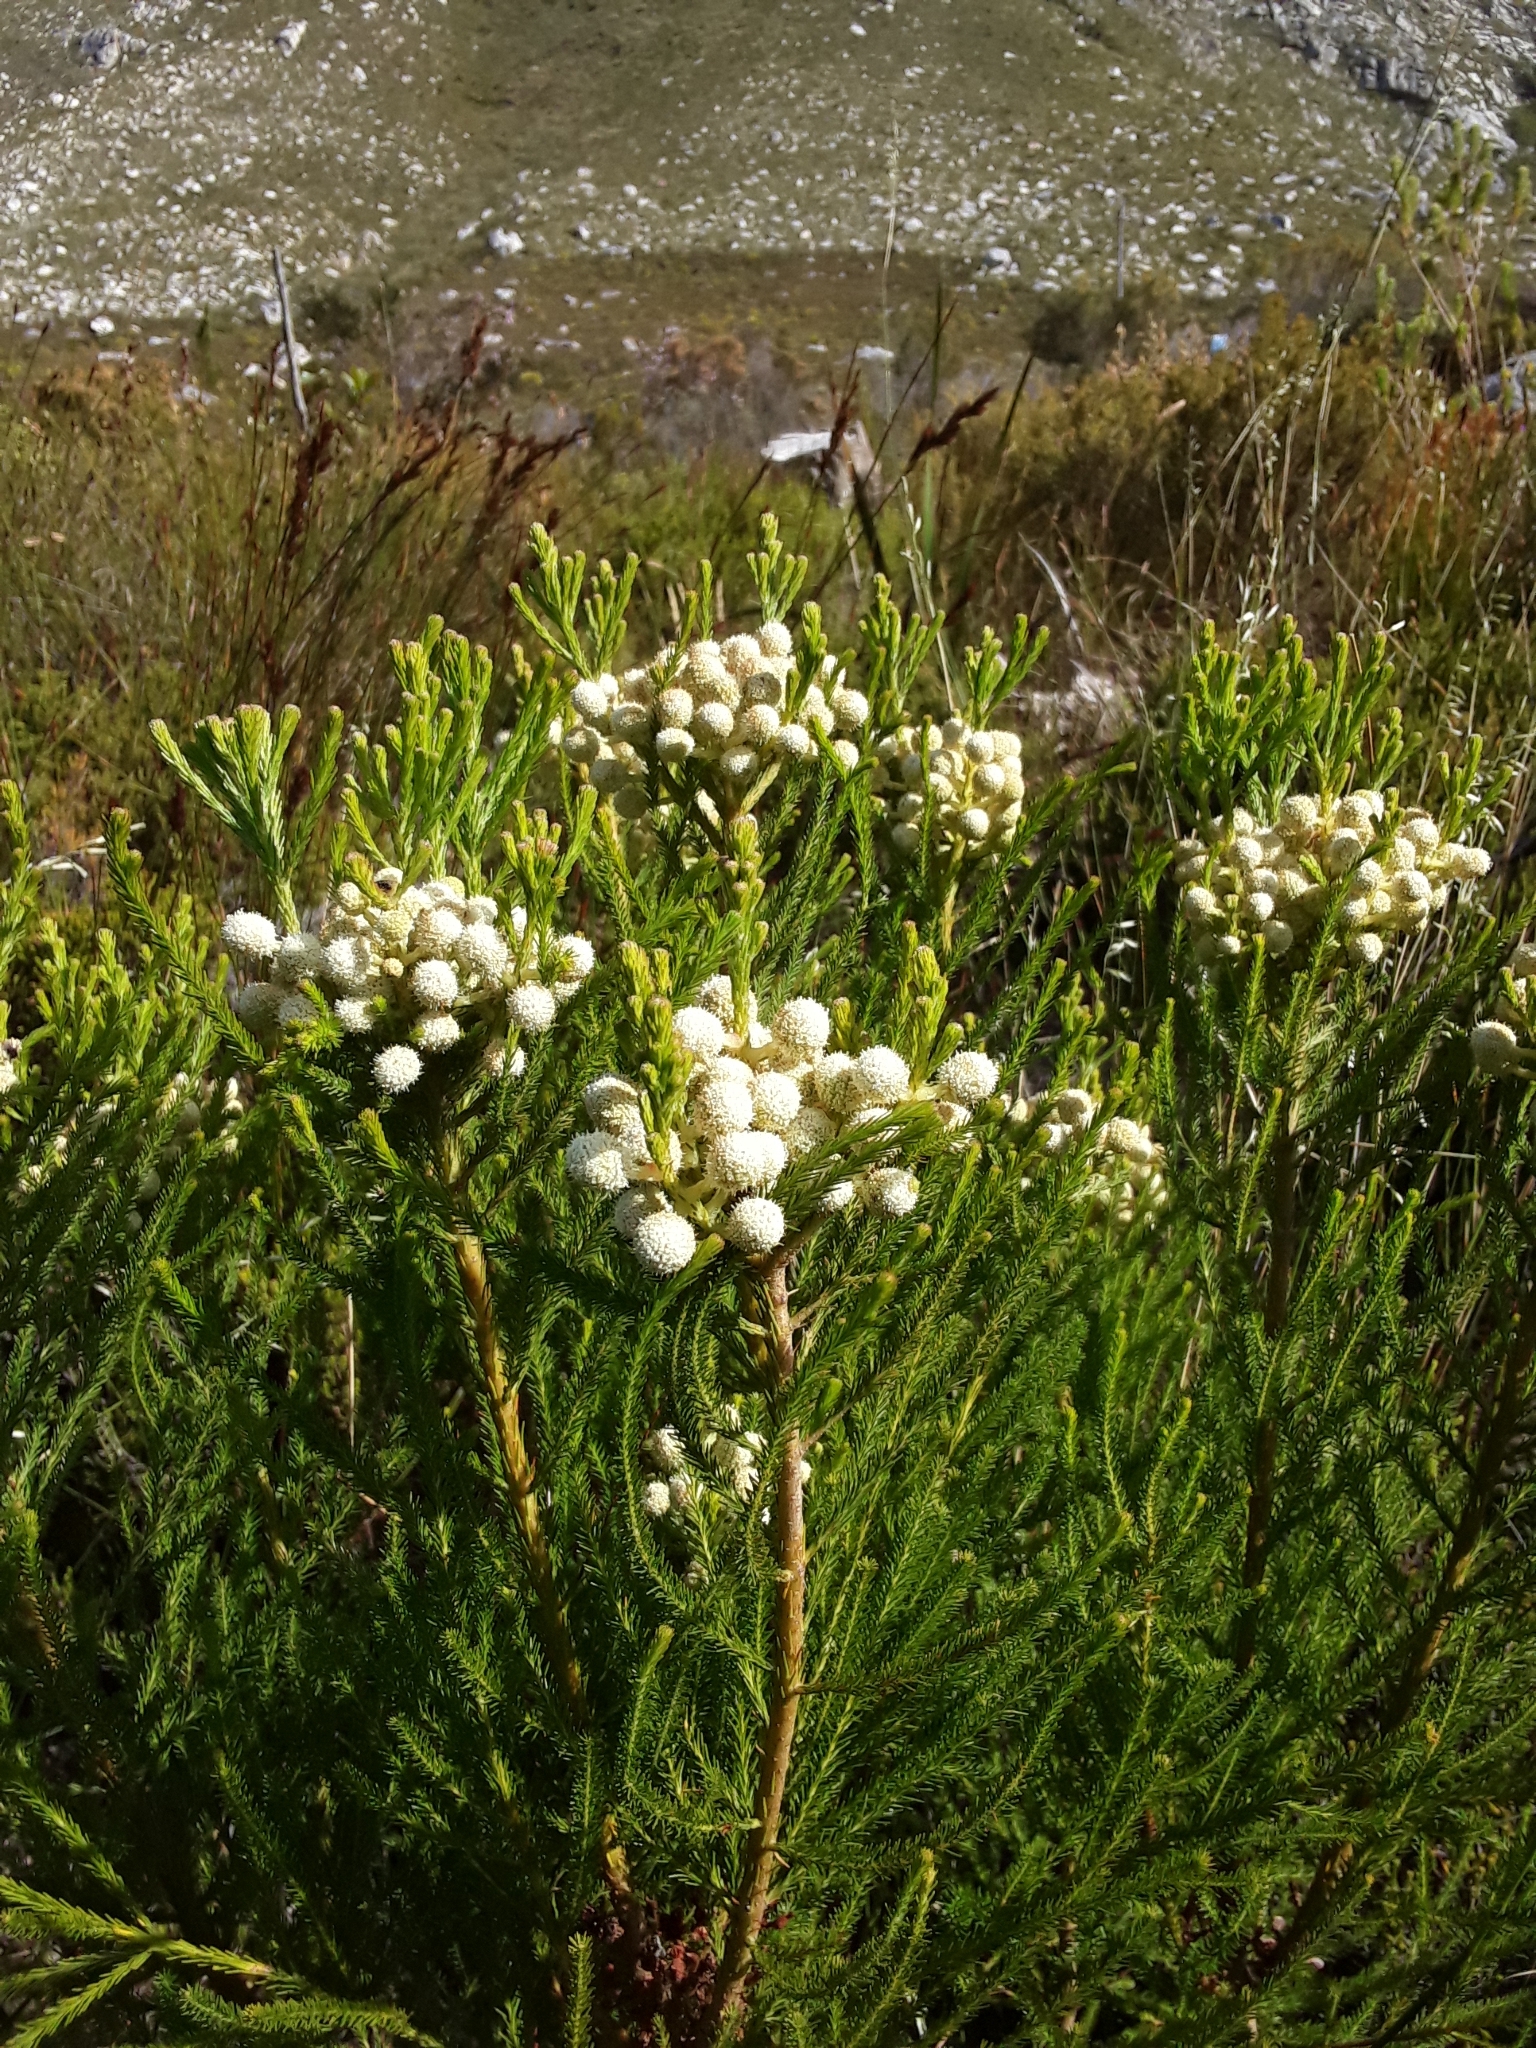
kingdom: Plantae
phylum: Tracheophyta
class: Magnoliopsida
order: Bruniales
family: Bruniaceae
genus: Berzelia
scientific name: Berzelia lanuginosa
